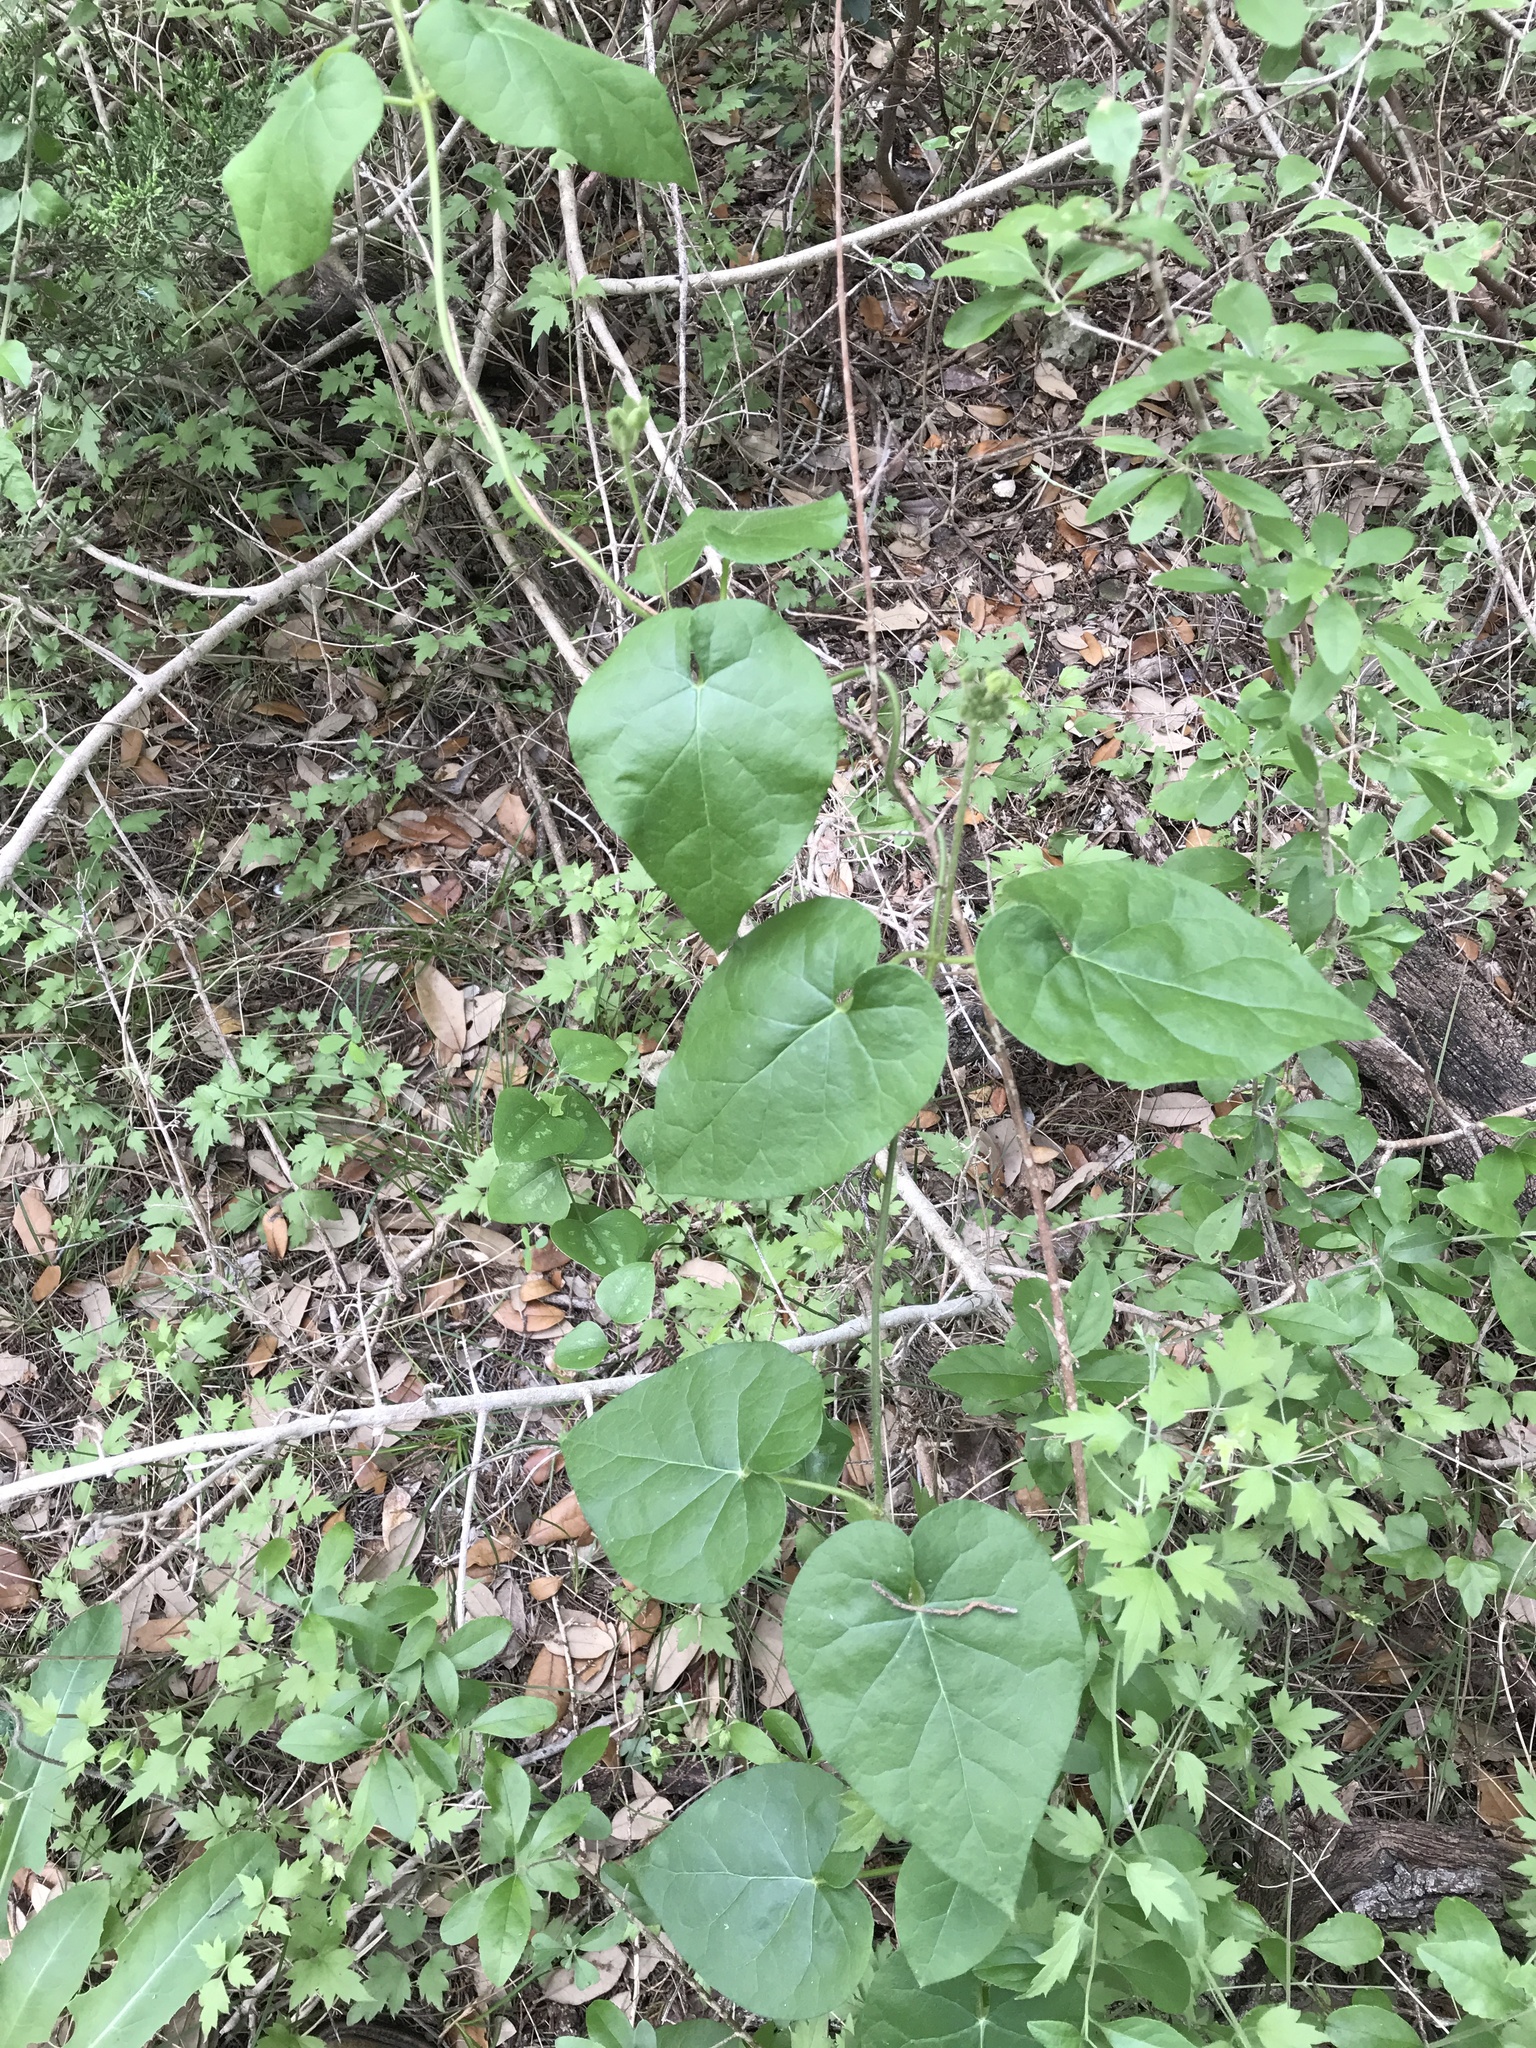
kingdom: Plantae
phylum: Tracheophyta
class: Magnoliopsida
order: Gentianales
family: Apocynaceae
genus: Dictyanthus
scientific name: Dictyanthus reticulatus
